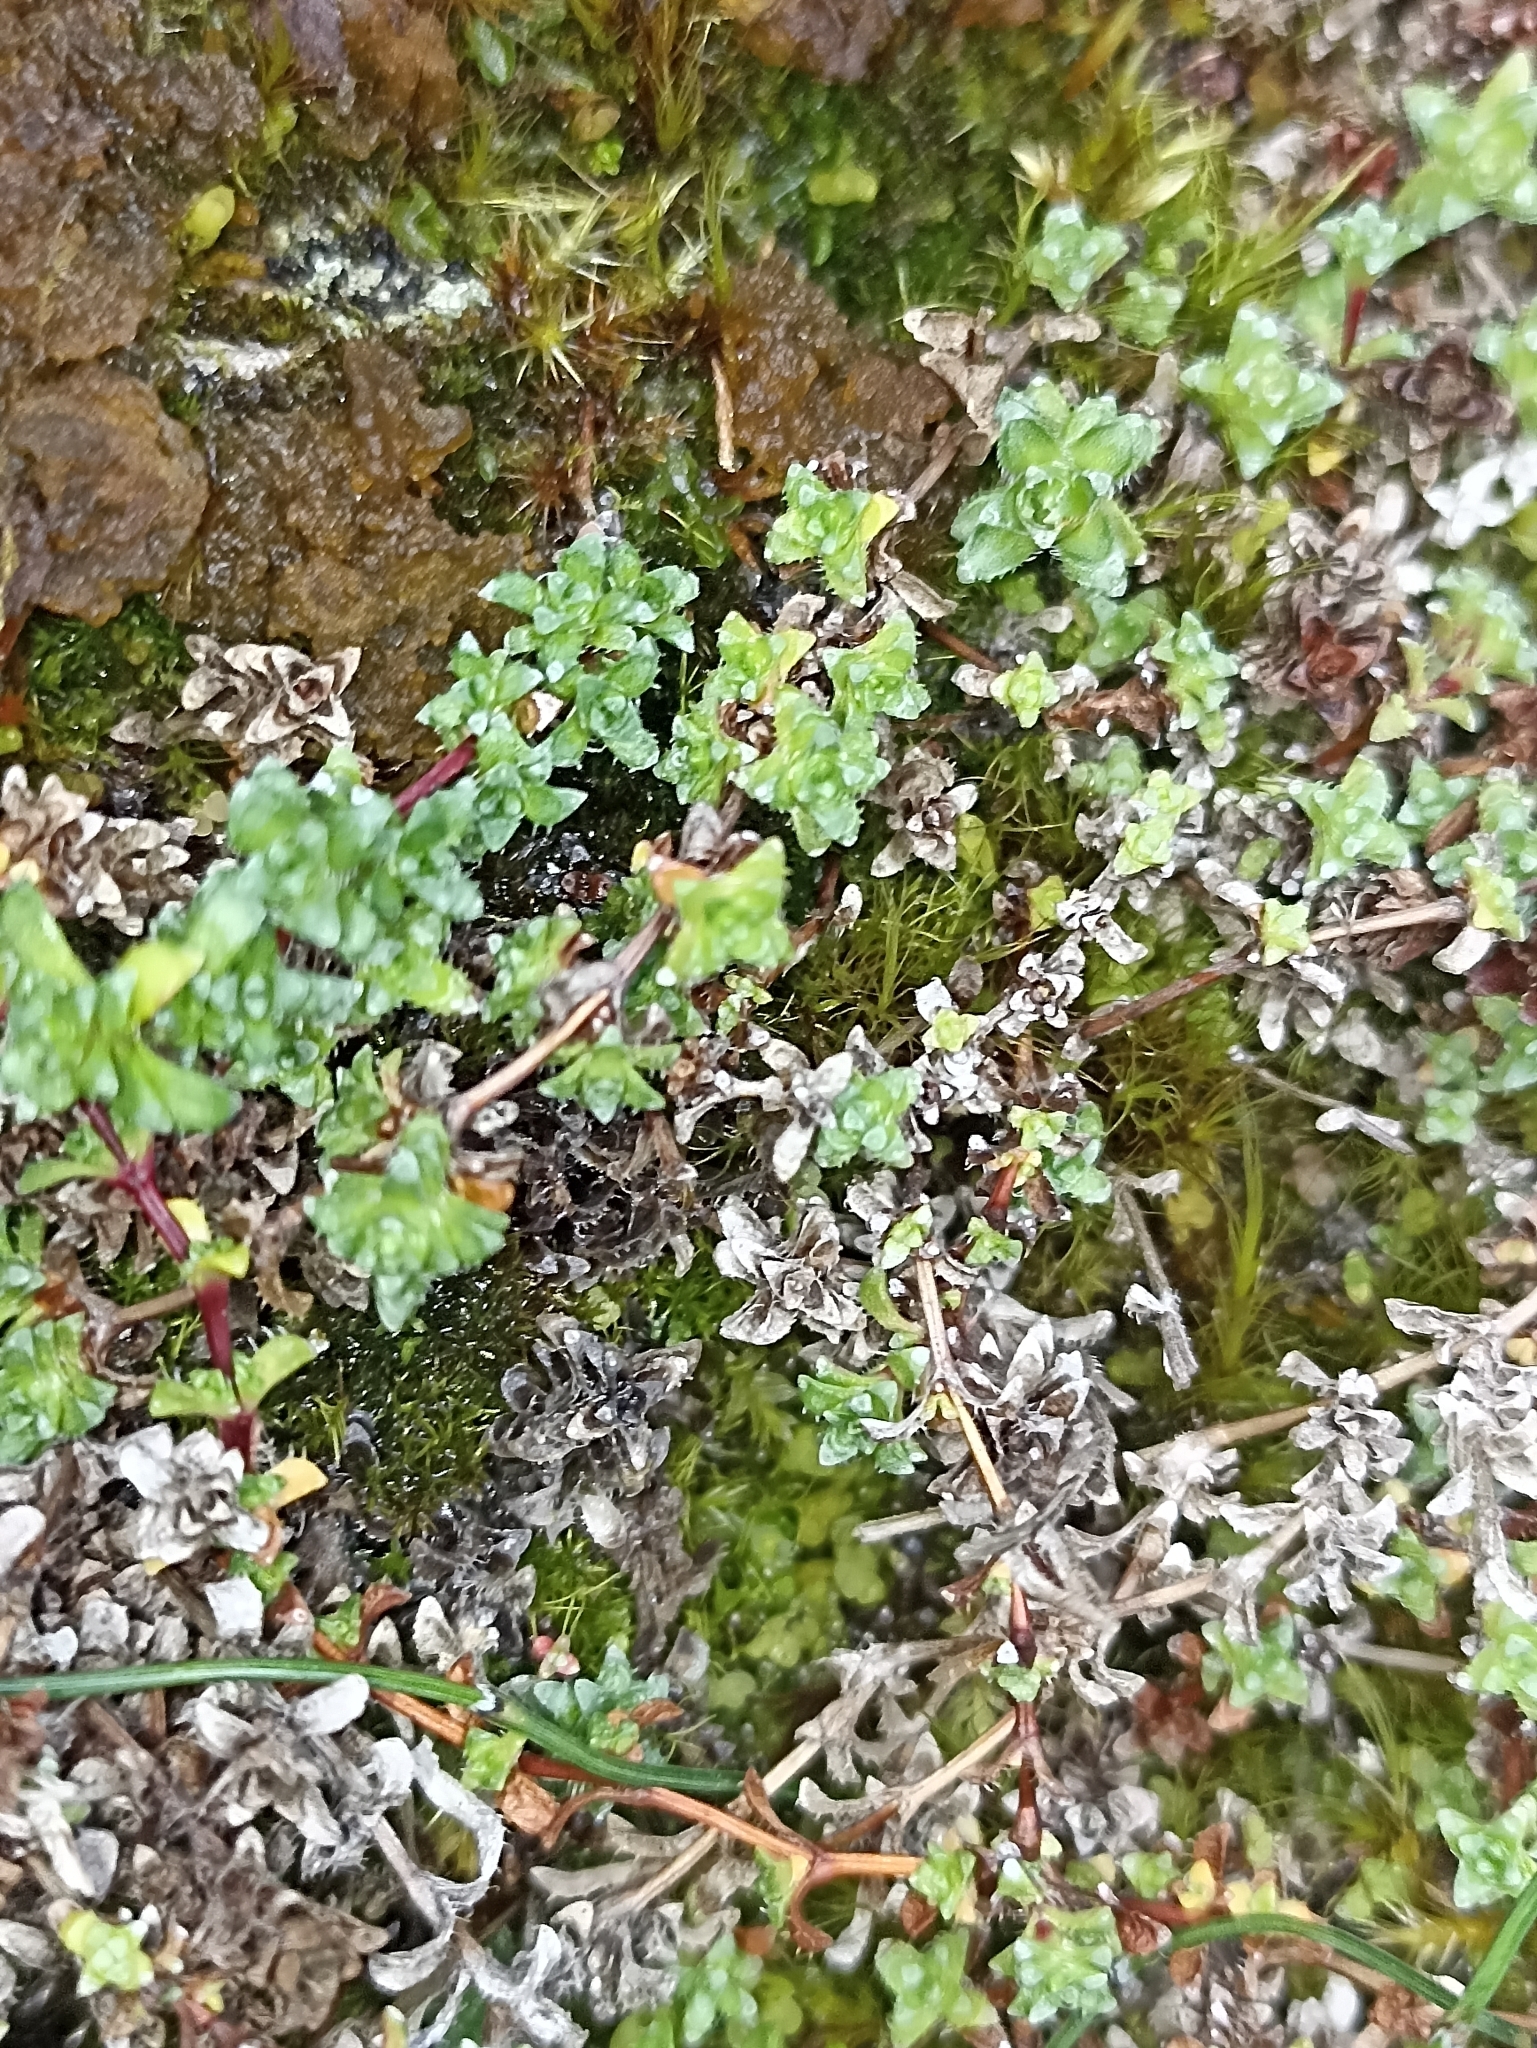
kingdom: Plantae
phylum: Tracheophyta
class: Magnoliopsida
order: Saxifragales
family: Saxifragaceae
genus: Saxifraga
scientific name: Saxifraga oppositifolia
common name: Purple saxifrage
